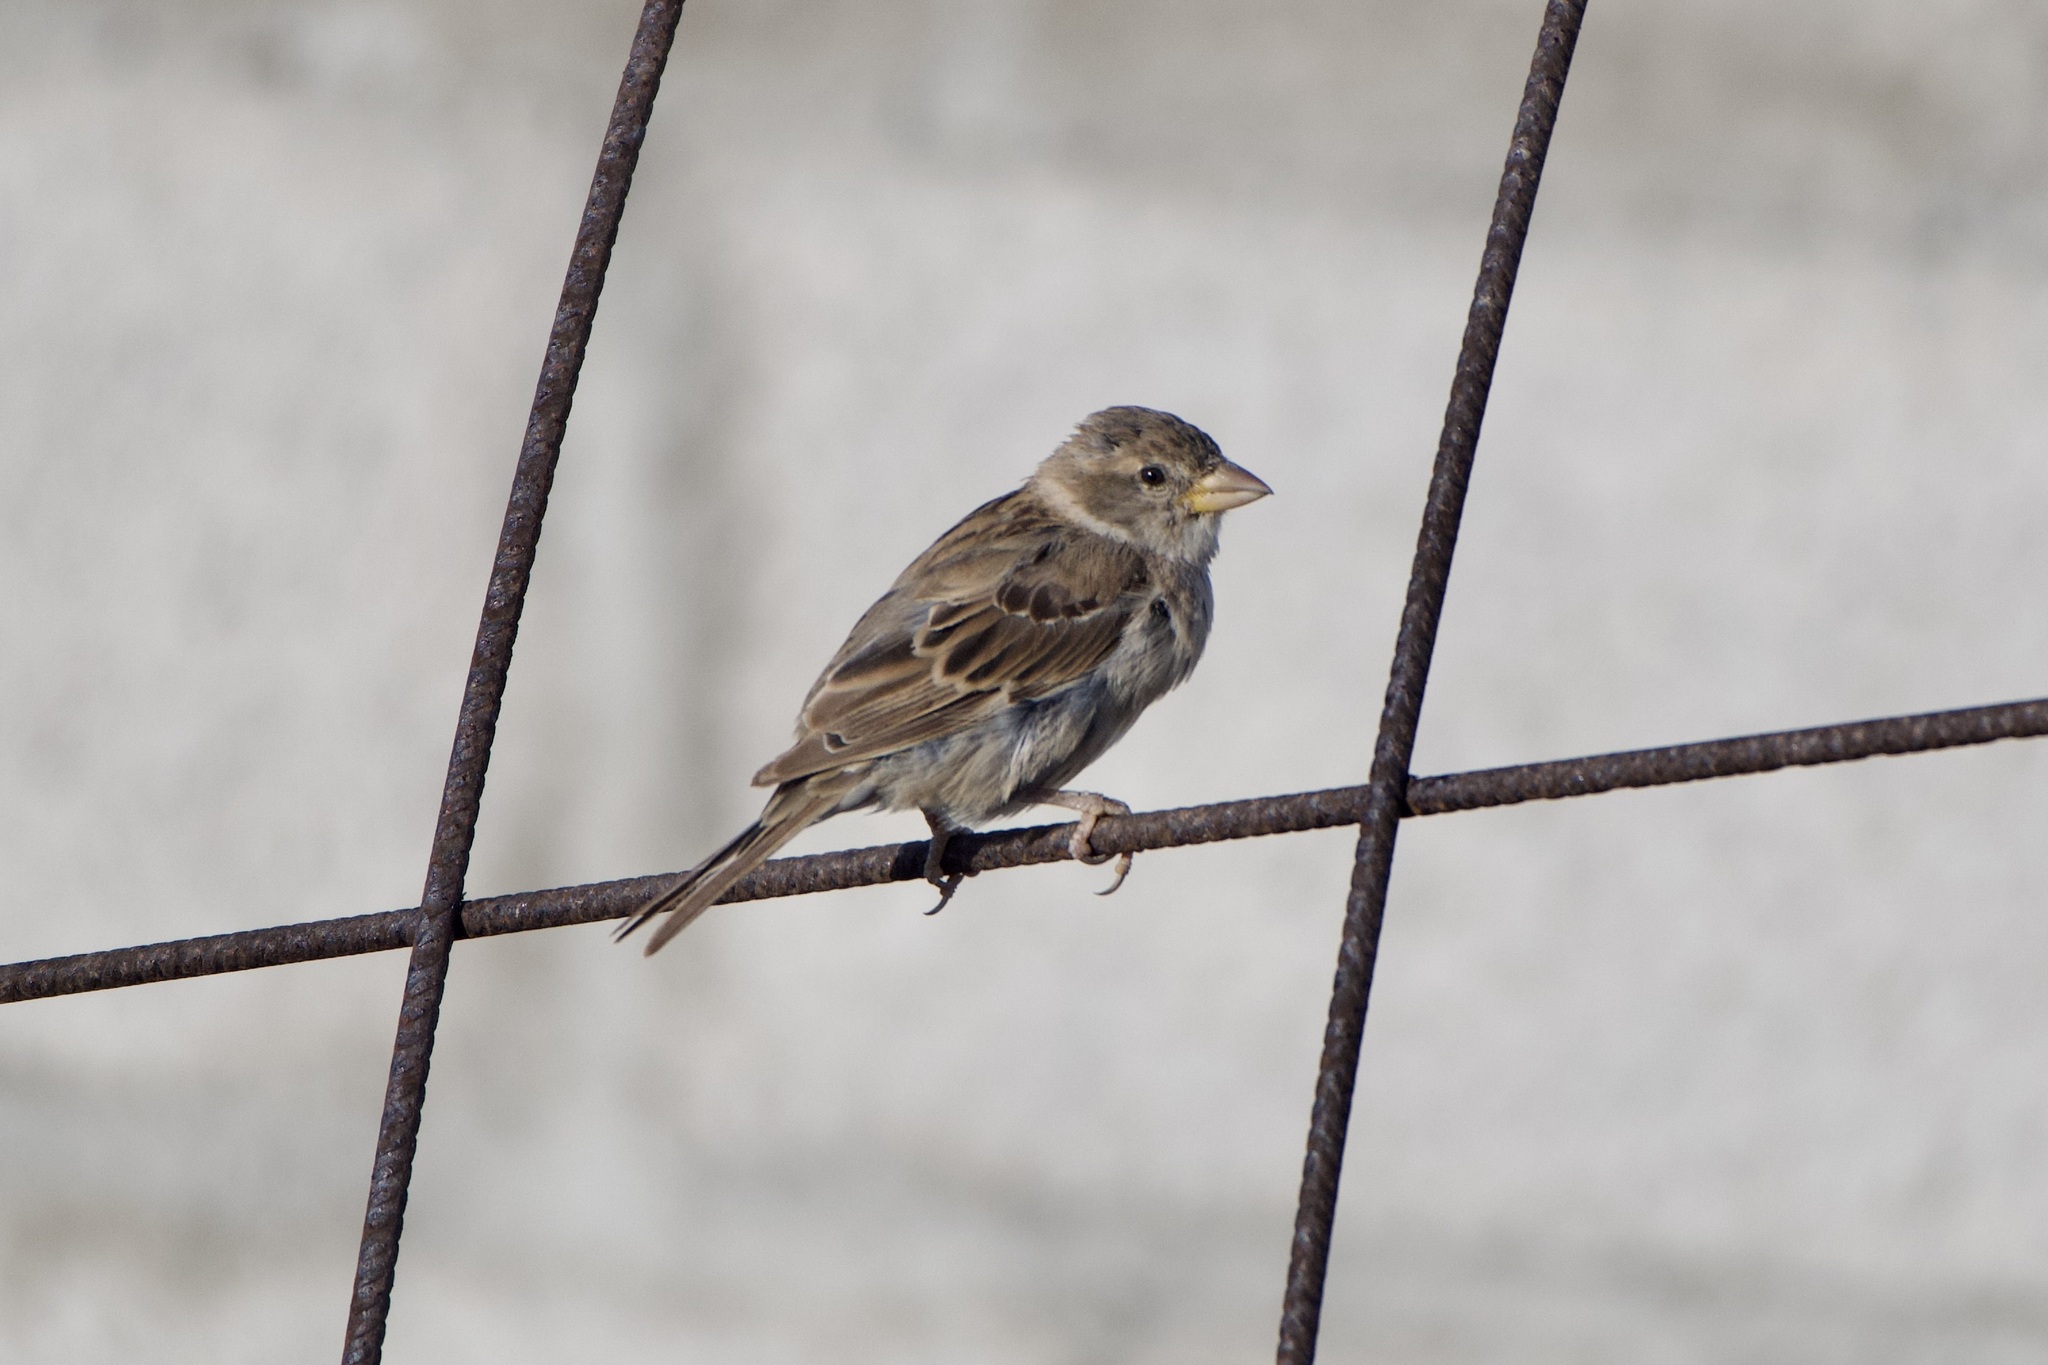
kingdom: Animalia
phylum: Chordata
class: Aves
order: Passeriformes
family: Passeridae
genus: Passer
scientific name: Passer hispaniolensis
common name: Spanish sparrow
